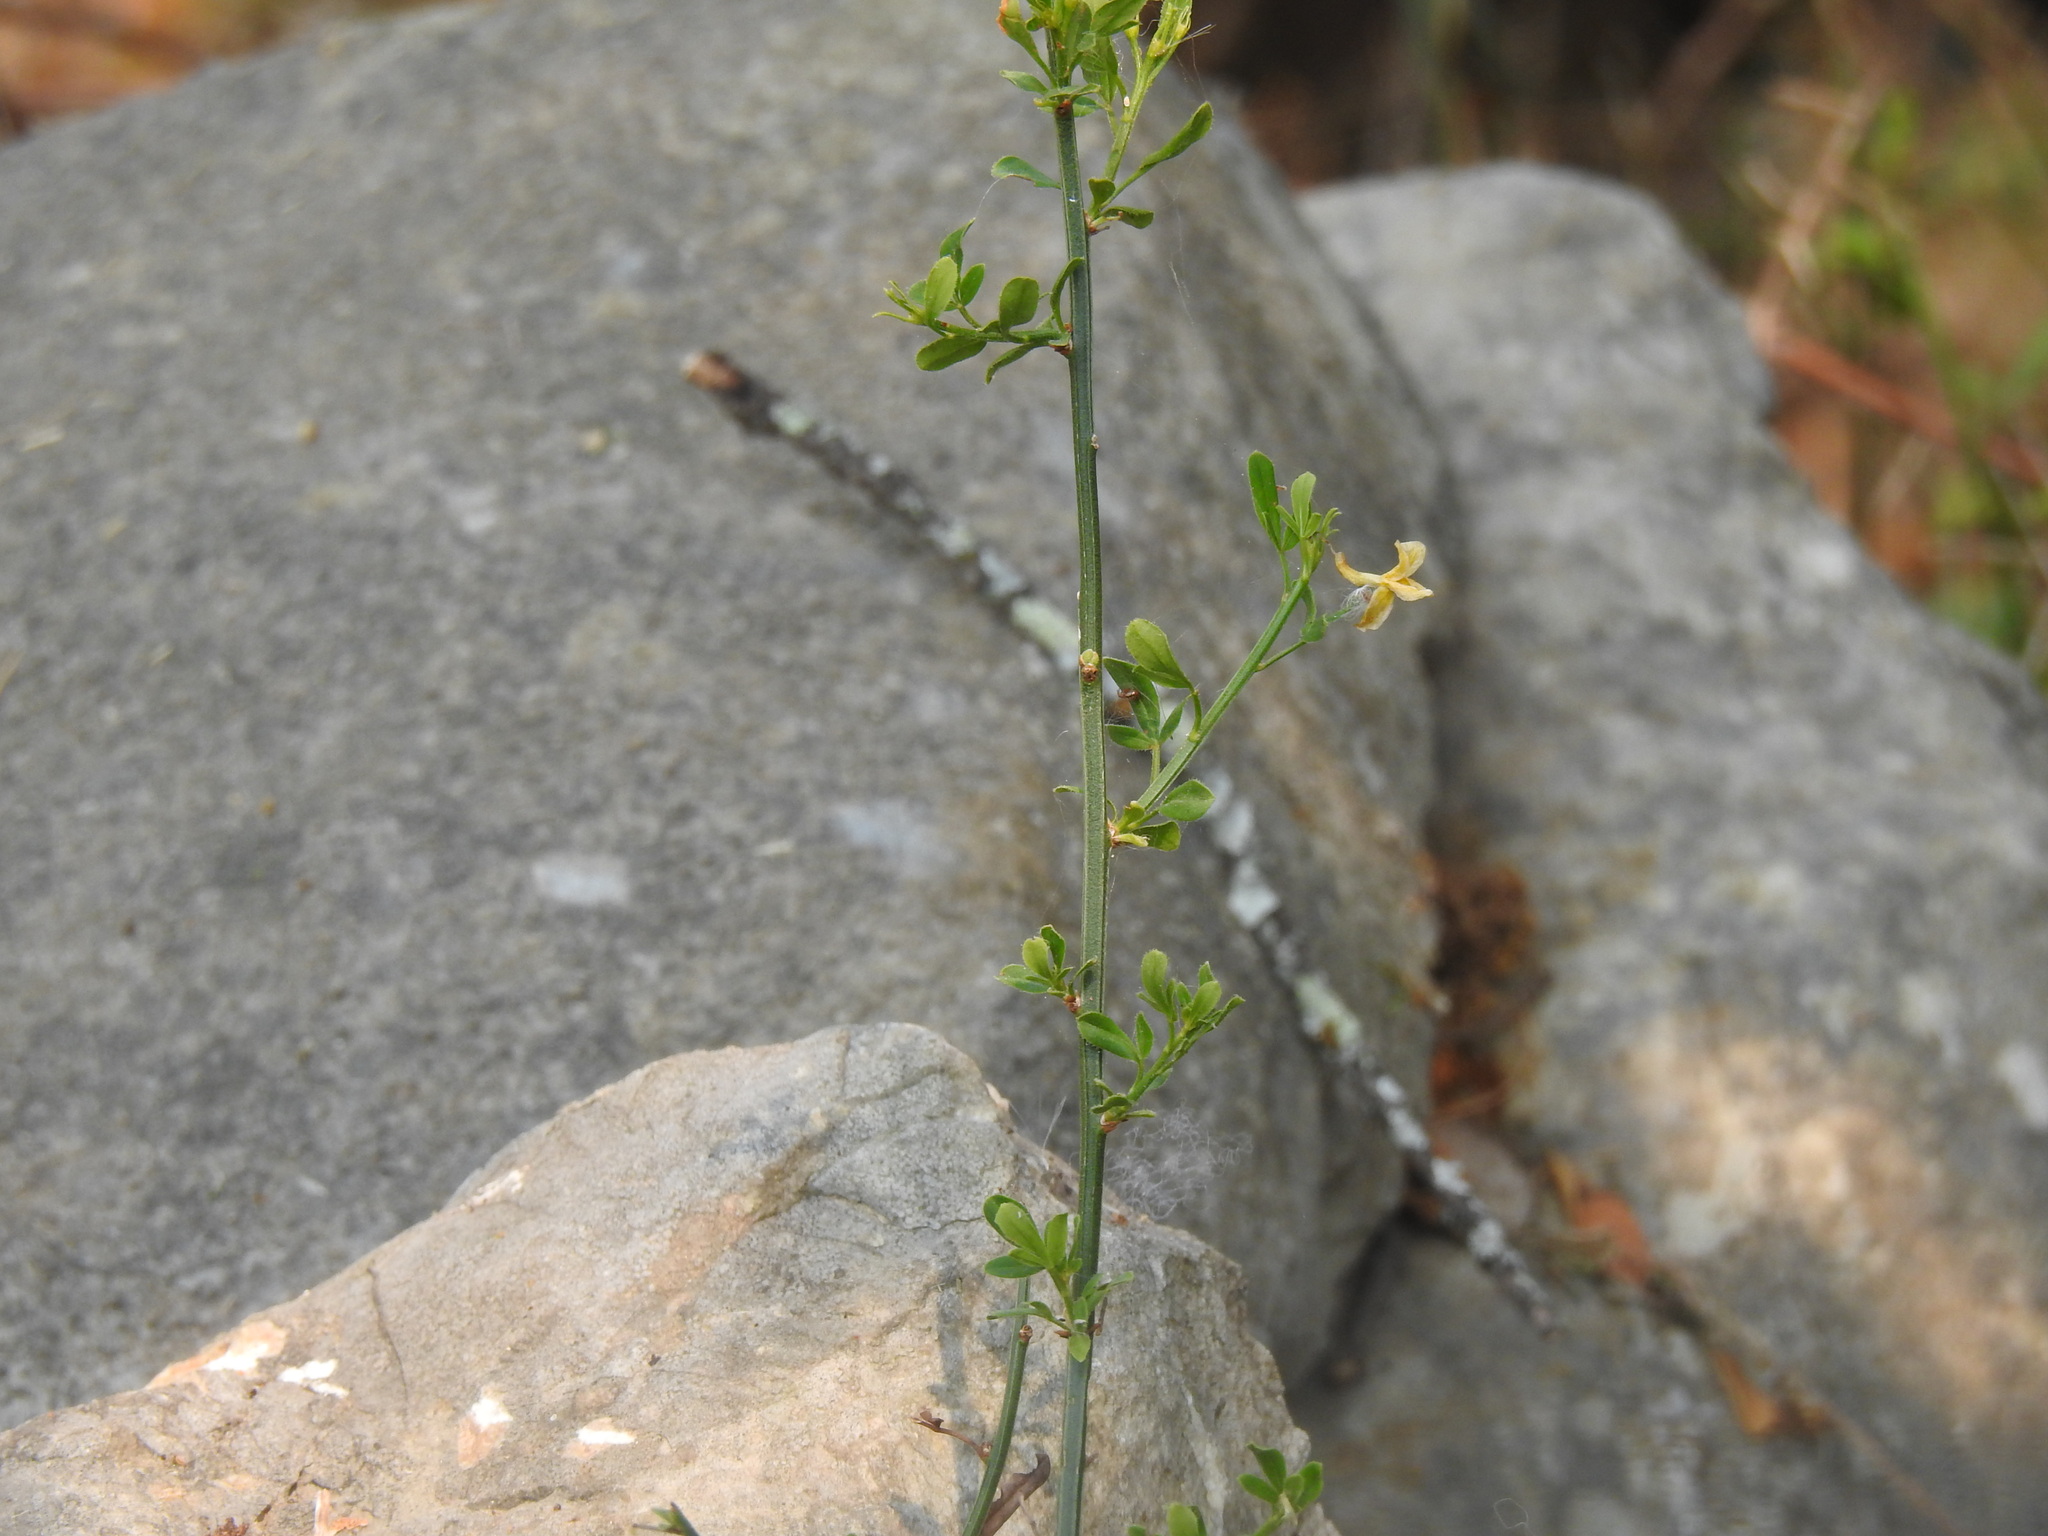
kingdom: Plantae
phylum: Tracheophyta
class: Magnoliopsida
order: Lamiales
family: Oleaceae
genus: Chrysojasminum
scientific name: Chrysojasminum fruticans
